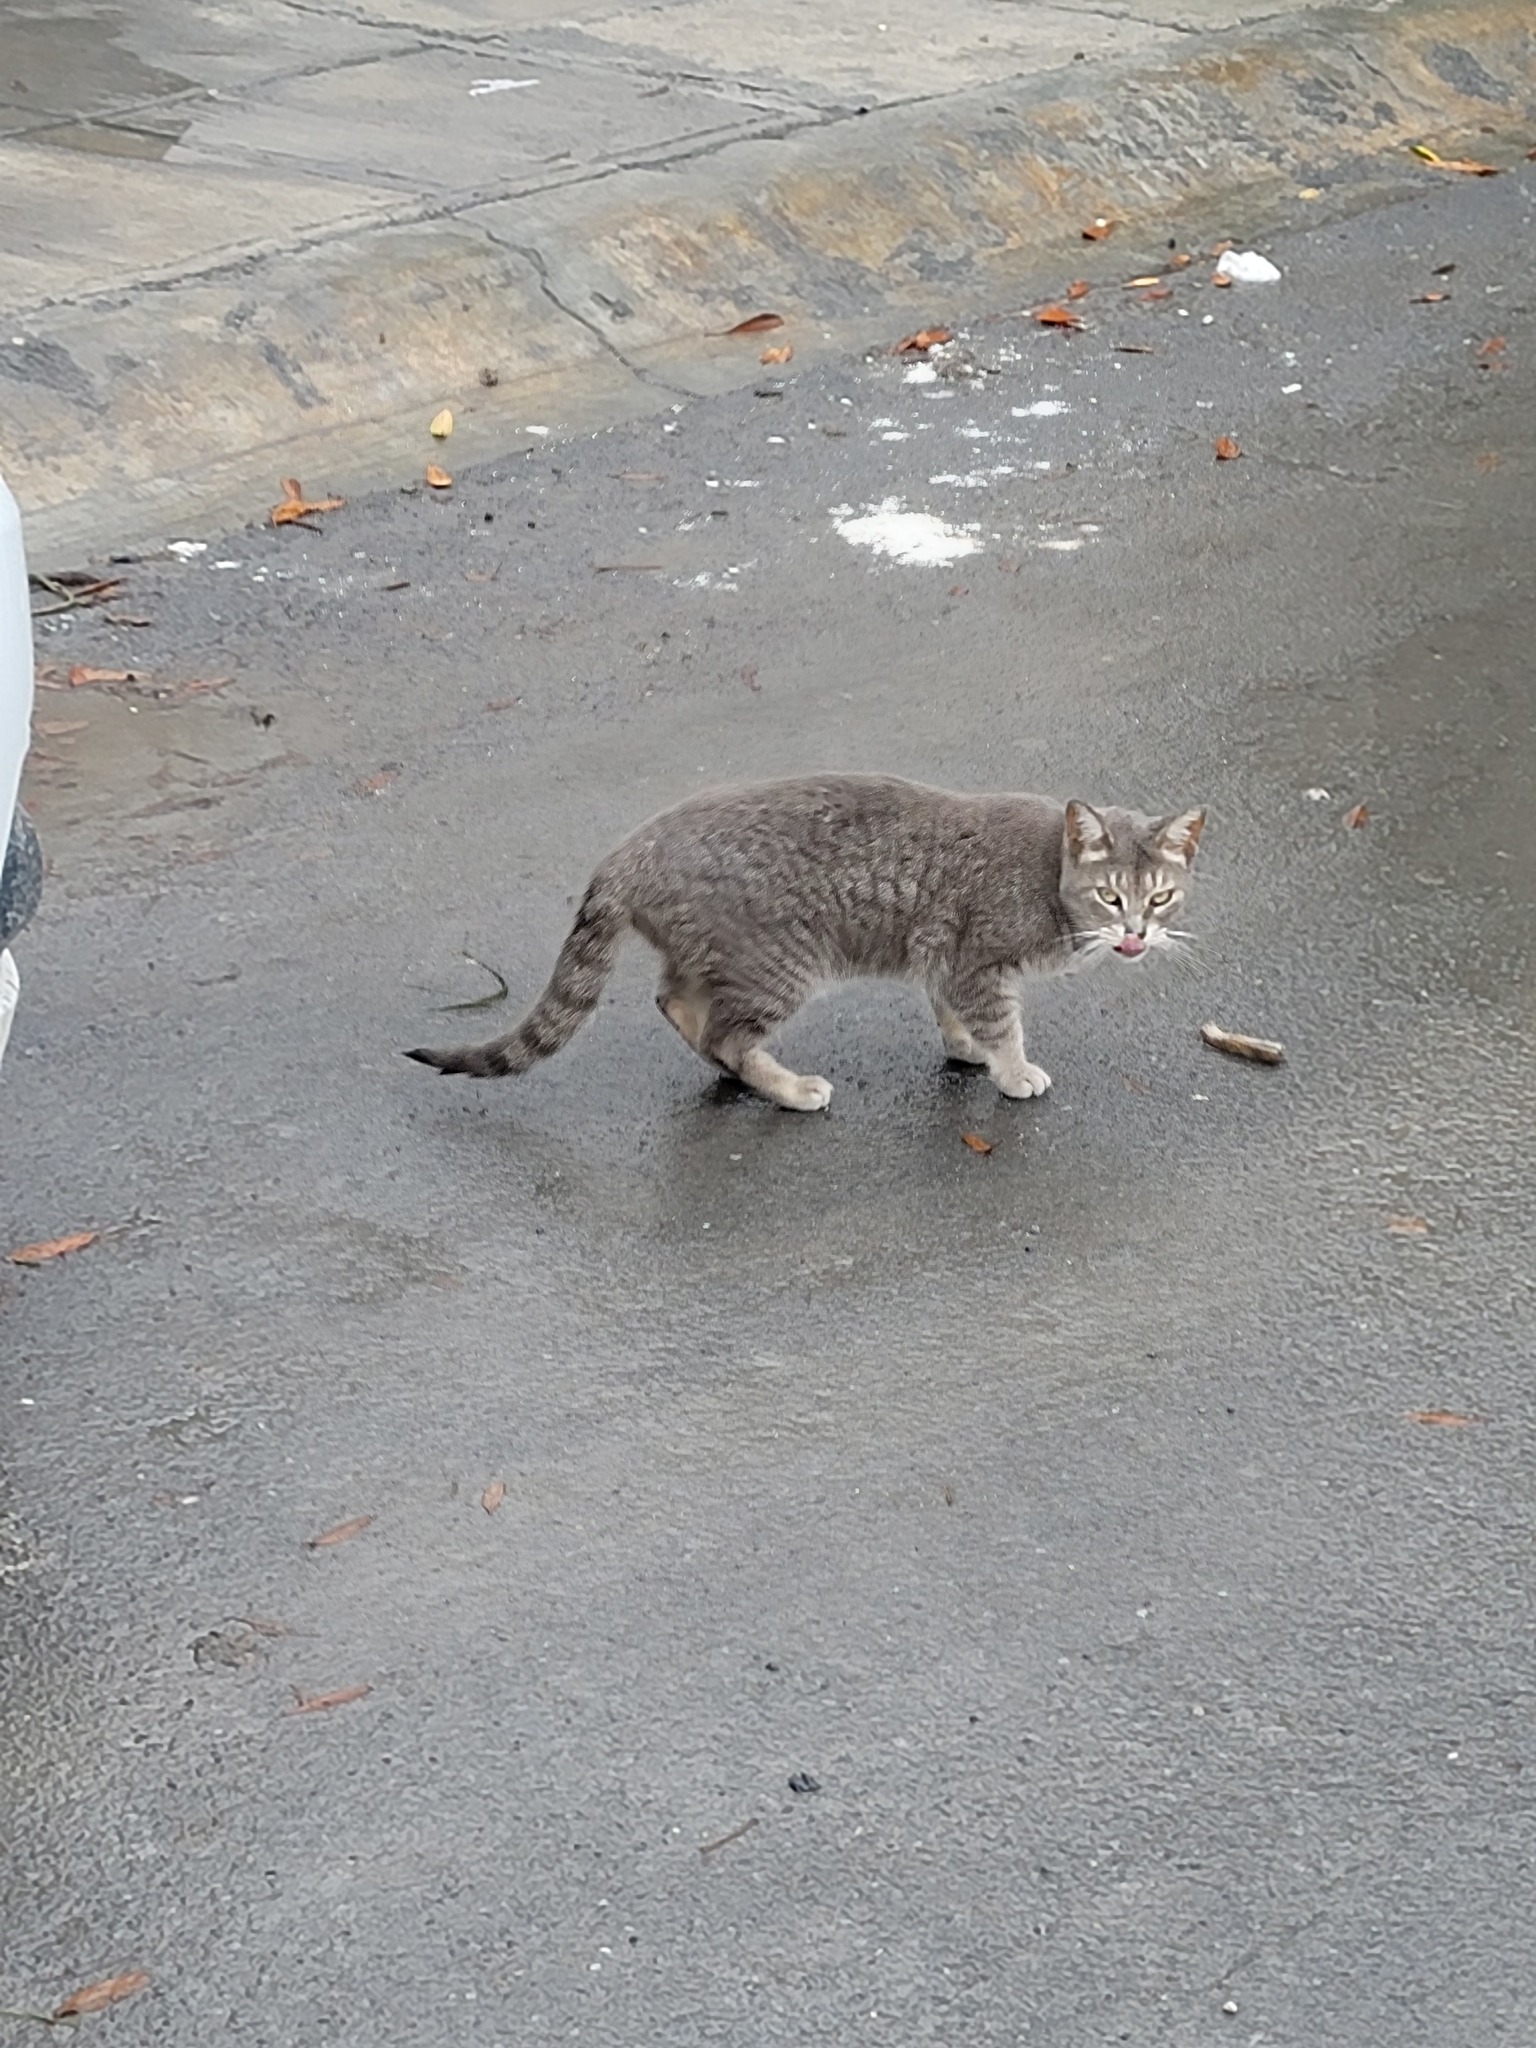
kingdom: Animalia
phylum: Chordata
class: Mammalia
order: Carnivora
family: Felidae
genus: Felis
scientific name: Felis catus
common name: Domestic cat
